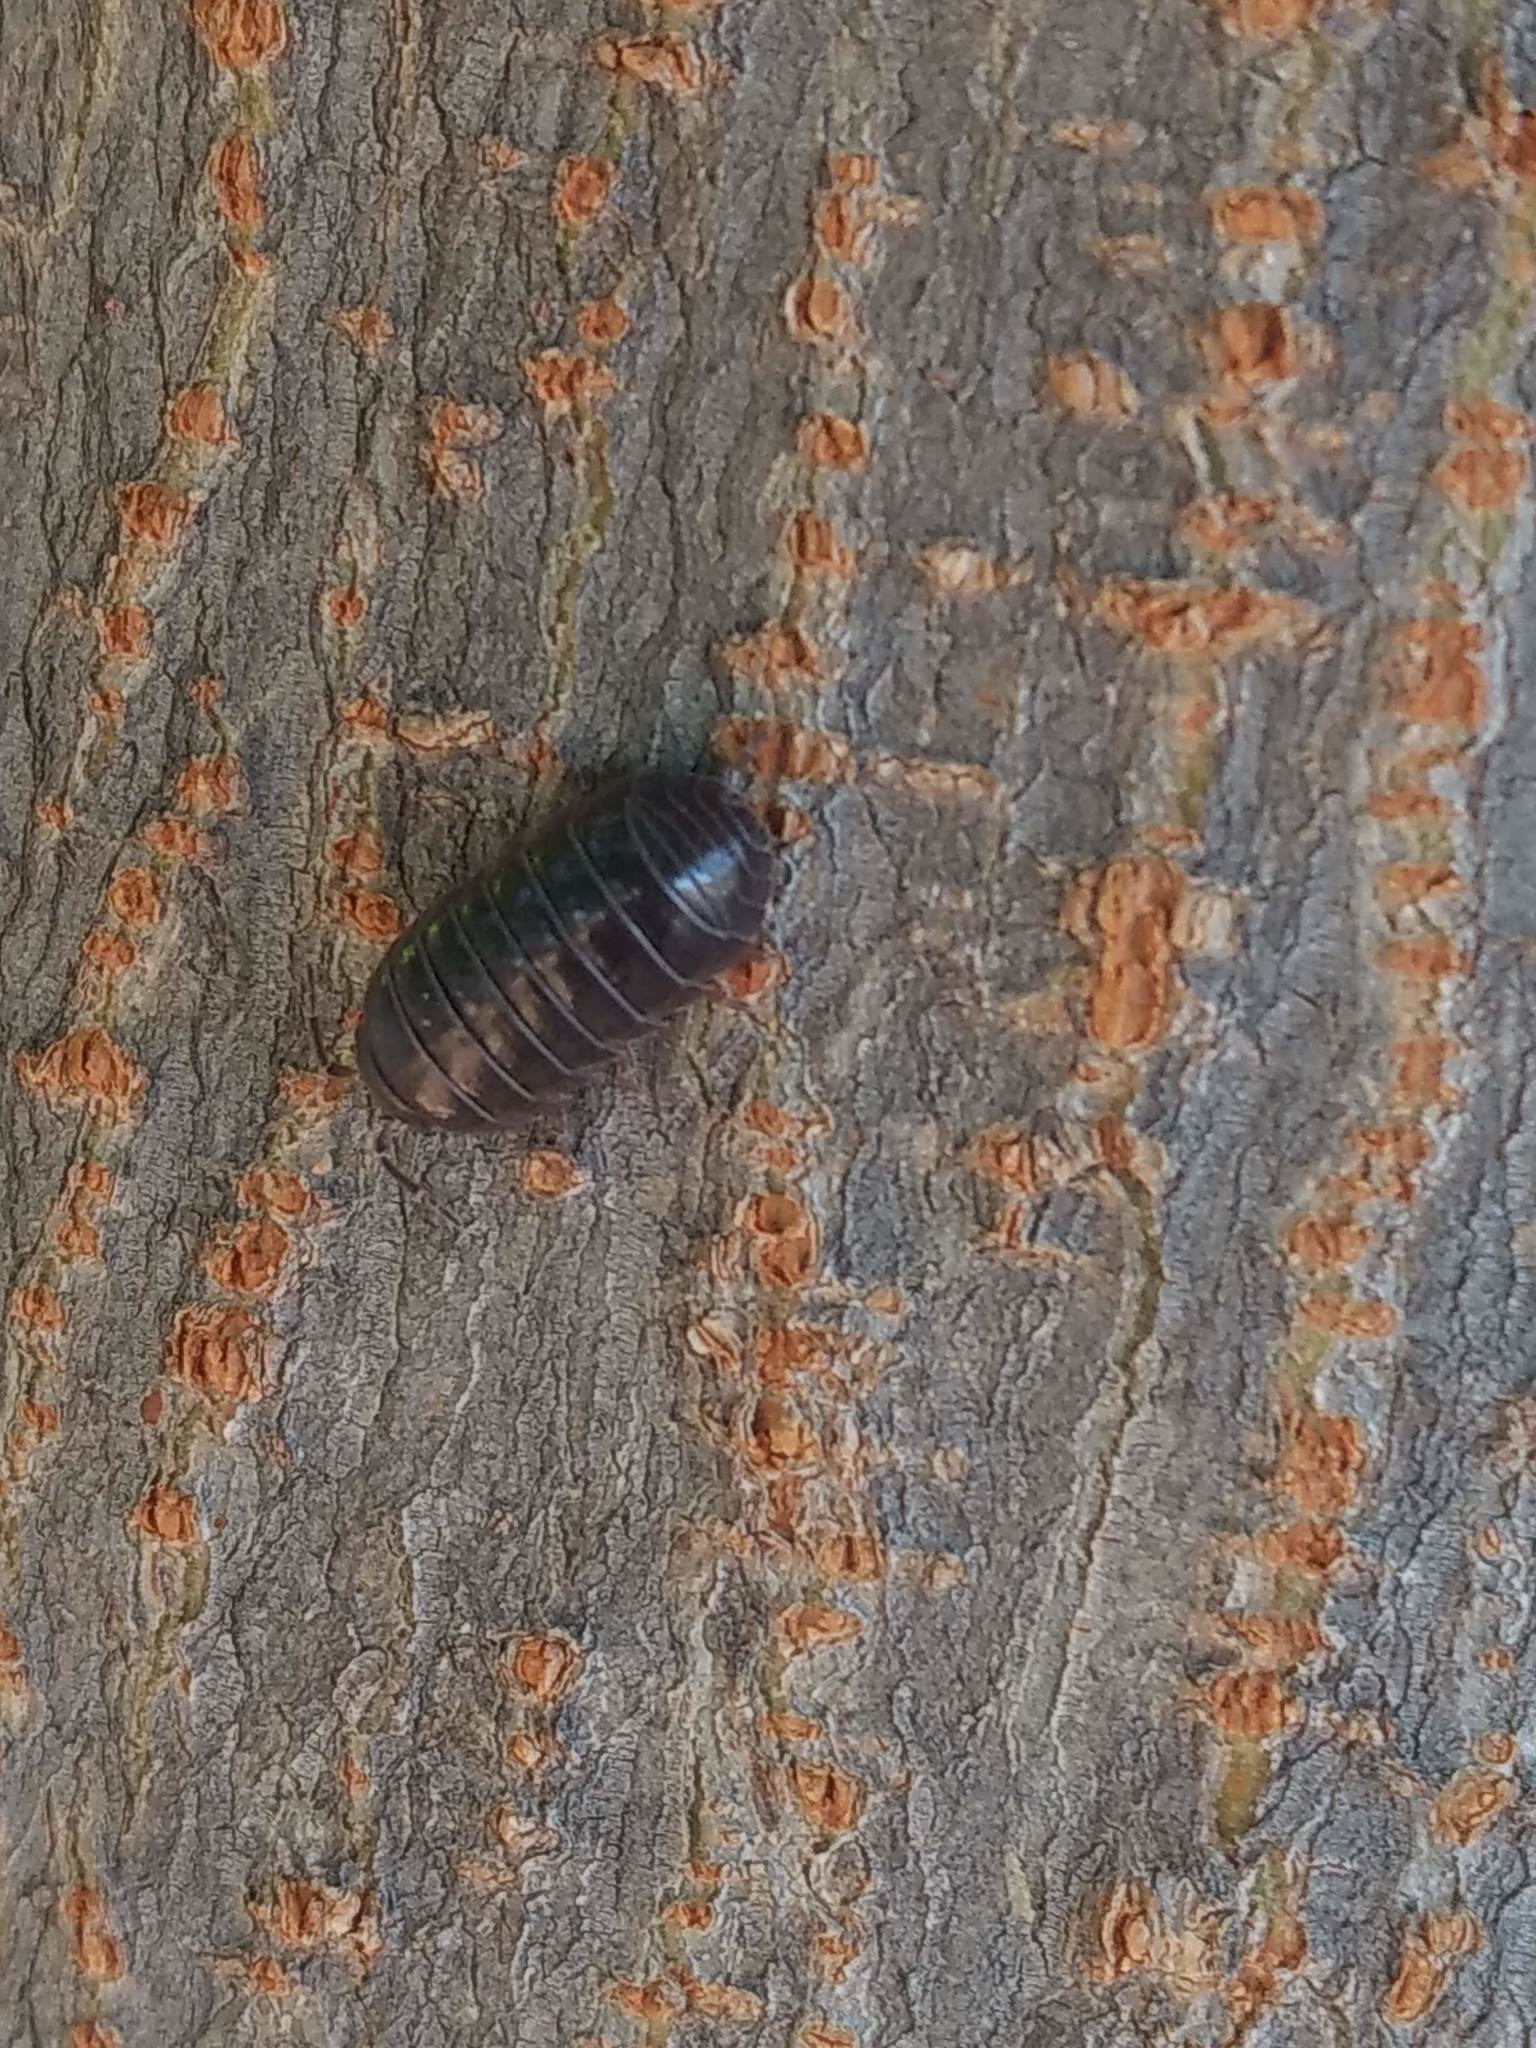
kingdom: Animalia
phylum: Arthropoda
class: Malacostraca
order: Isopoda
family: Armadillidiidae
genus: Armadillidium
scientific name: Armadillidium vulgare
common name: Common pill woodlouse
